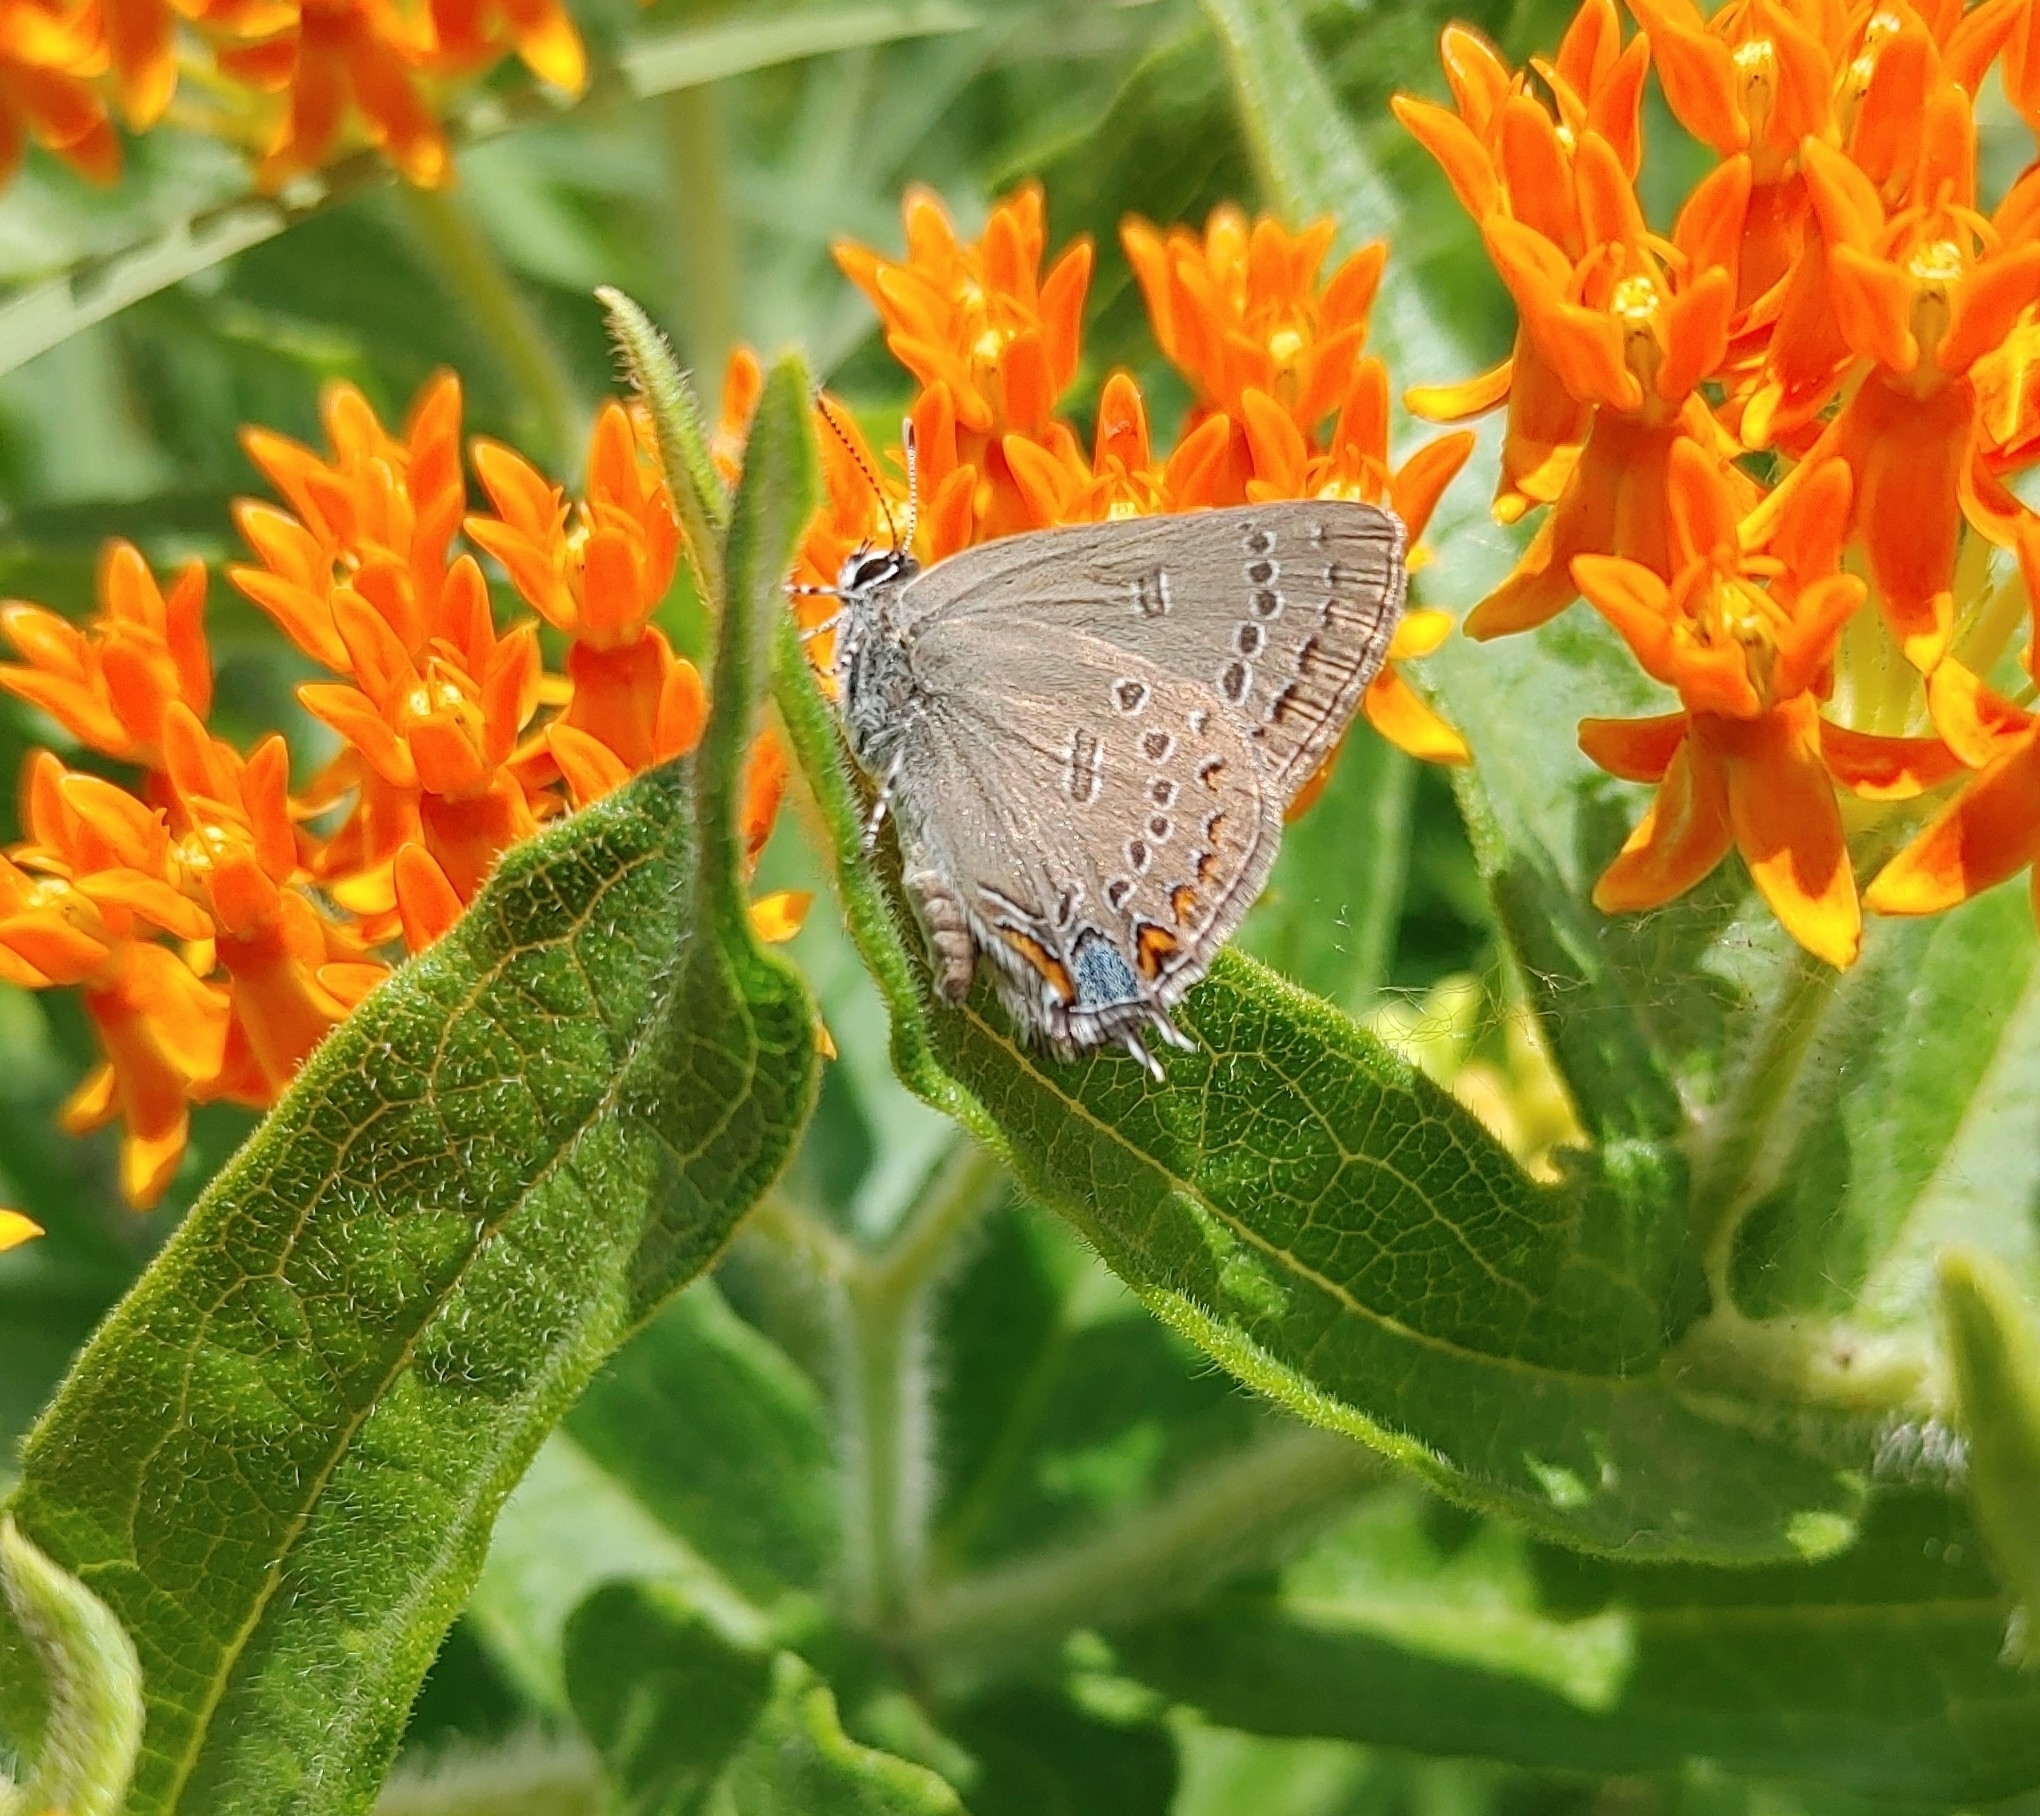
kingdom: Animalia
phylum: Arthropoda
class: Insecta
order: Lepidoptera
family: Lycaenidae
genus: Satyrium
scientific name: Satyrium edwardsii
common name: Edwards' hairstreak
